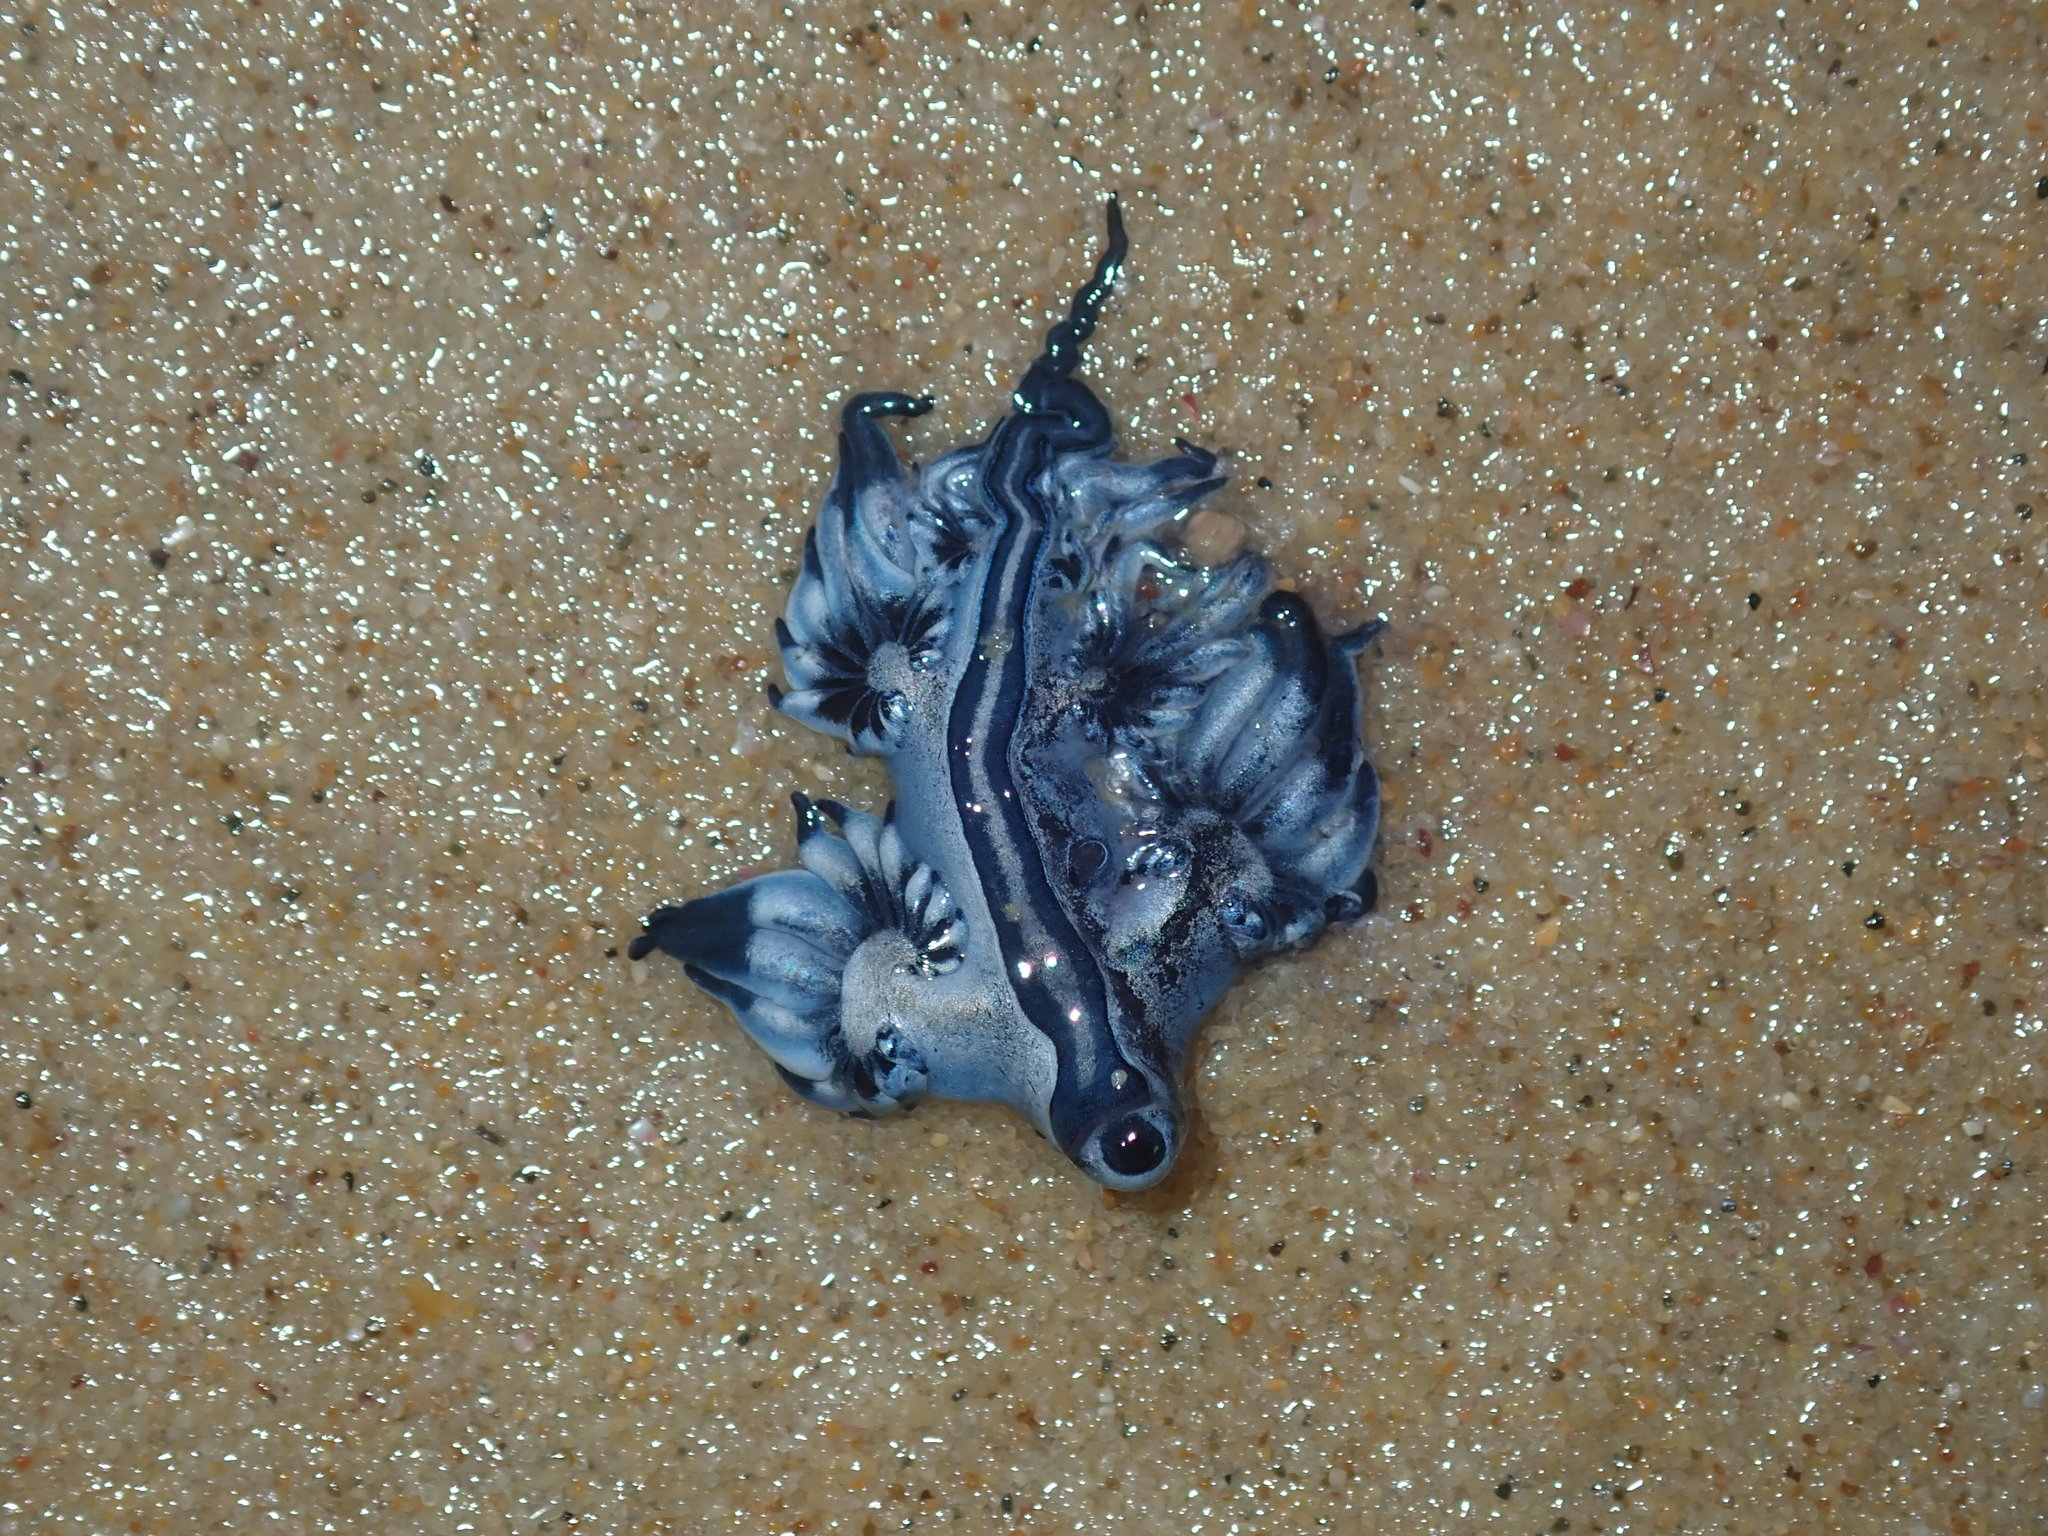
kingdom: Animalia
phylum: Mollusca
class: Gastropoda
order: Nudibranchia
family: Glaucidae
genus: Glaucus
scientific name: Glaucus atlanticus
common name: Purple ocean slug
